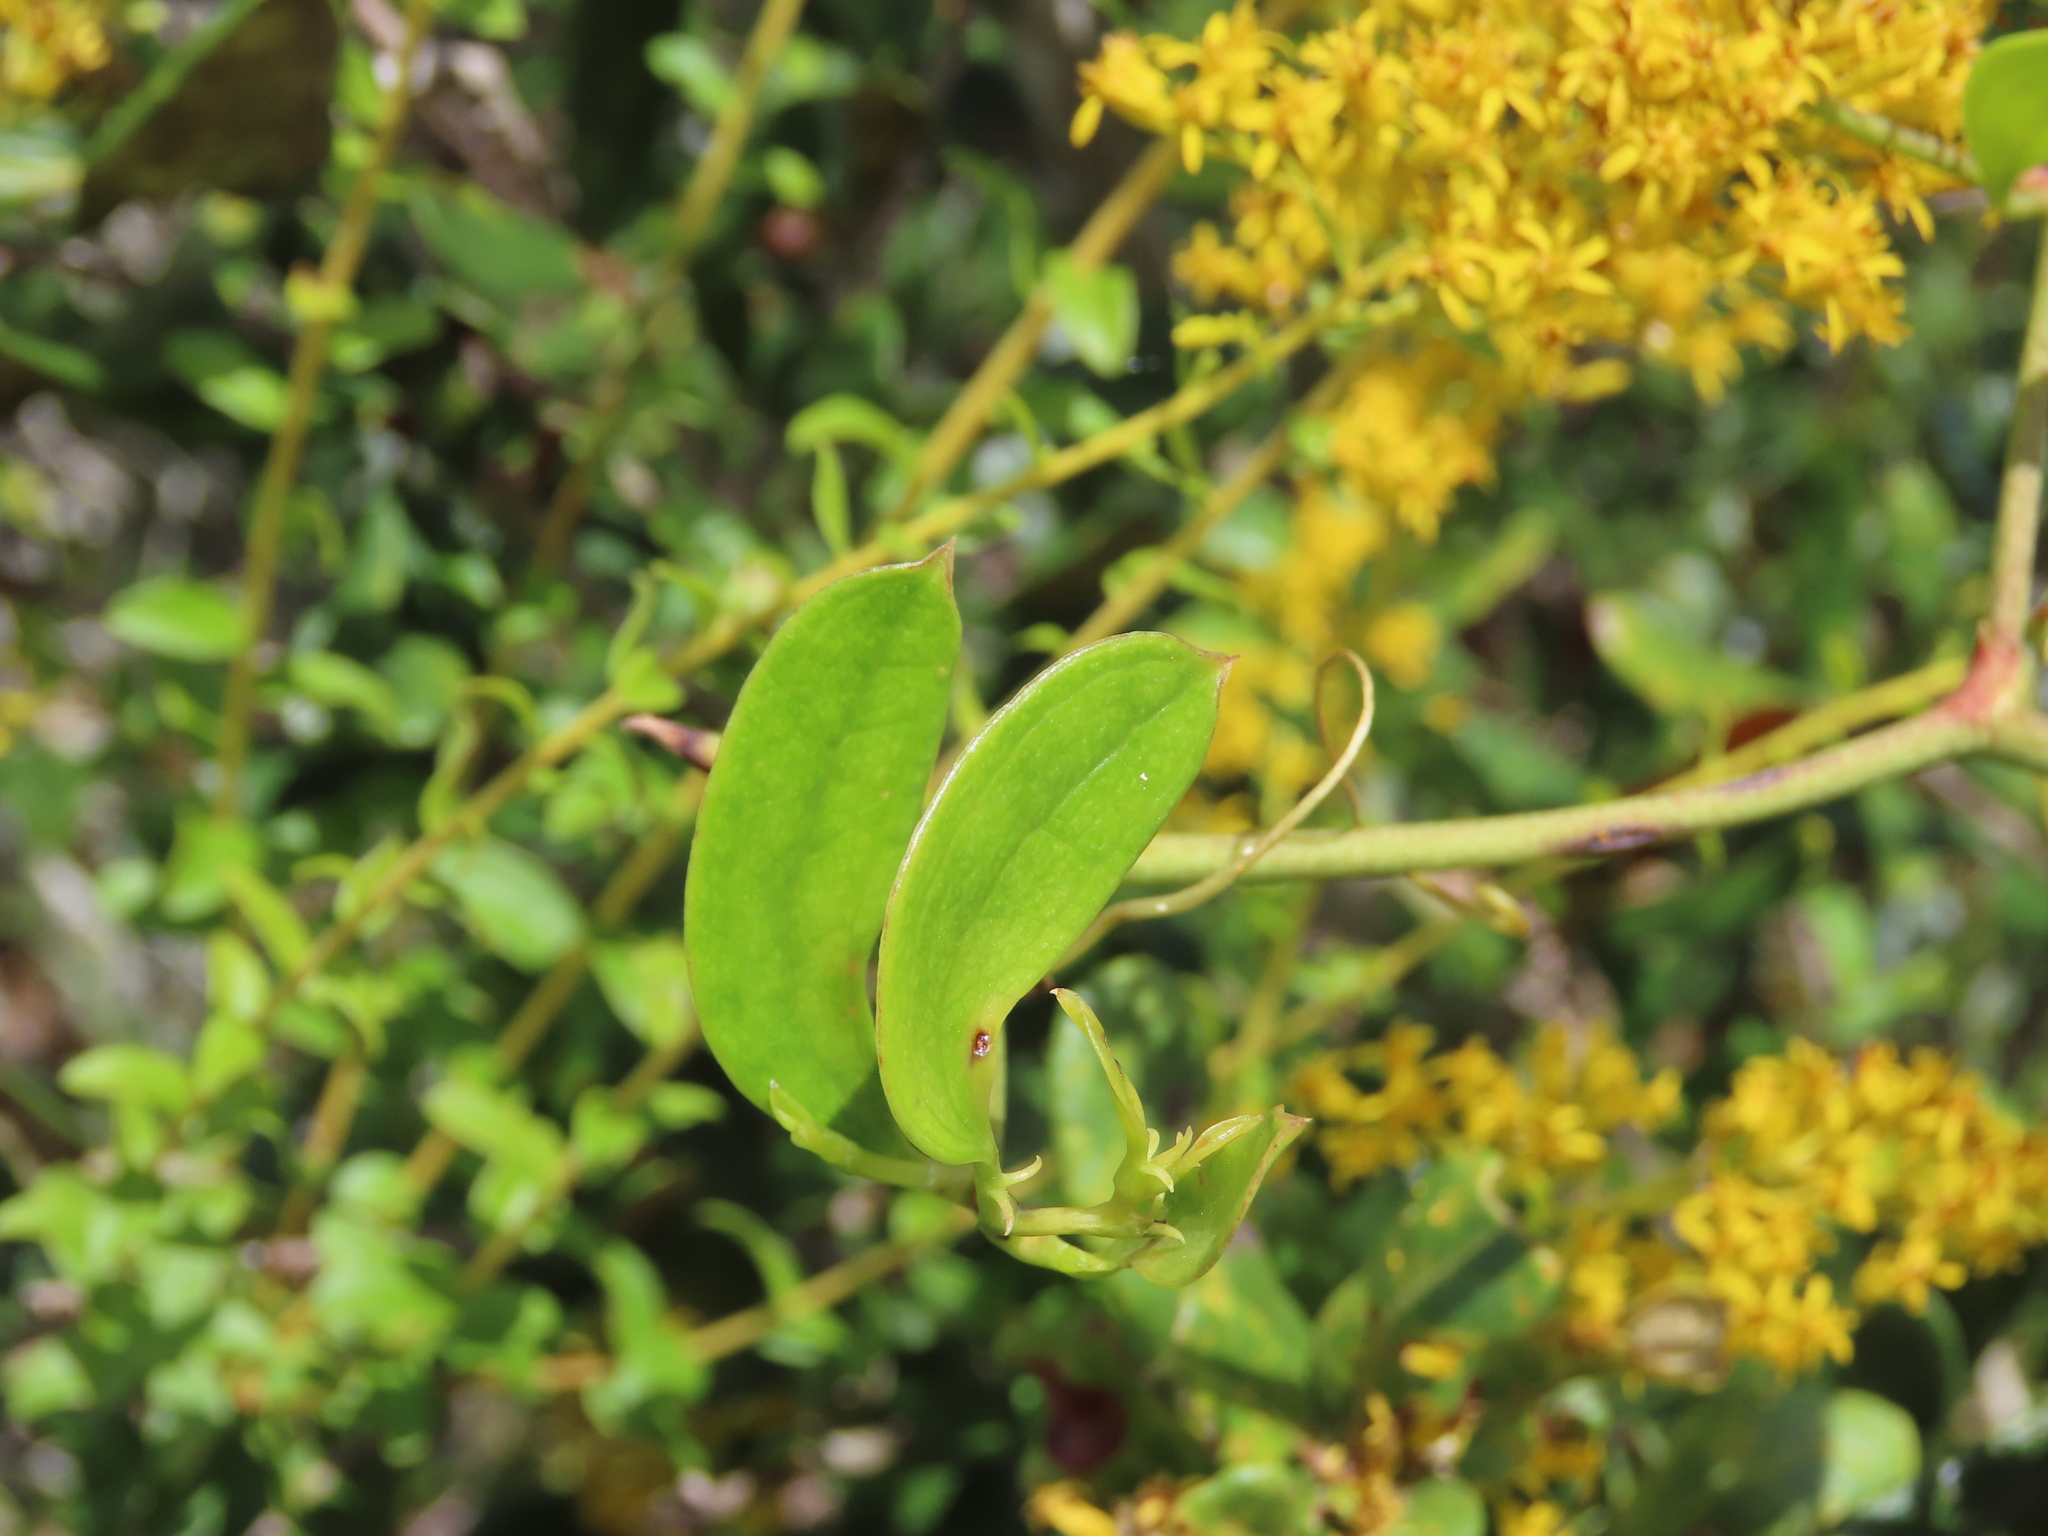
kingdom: Plantae
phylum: Tracheophyta
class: Liliopsida
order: Liliales
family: Smilacaceae
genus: Smilax
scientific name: Smilax auriculata
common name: Wild bamboo
